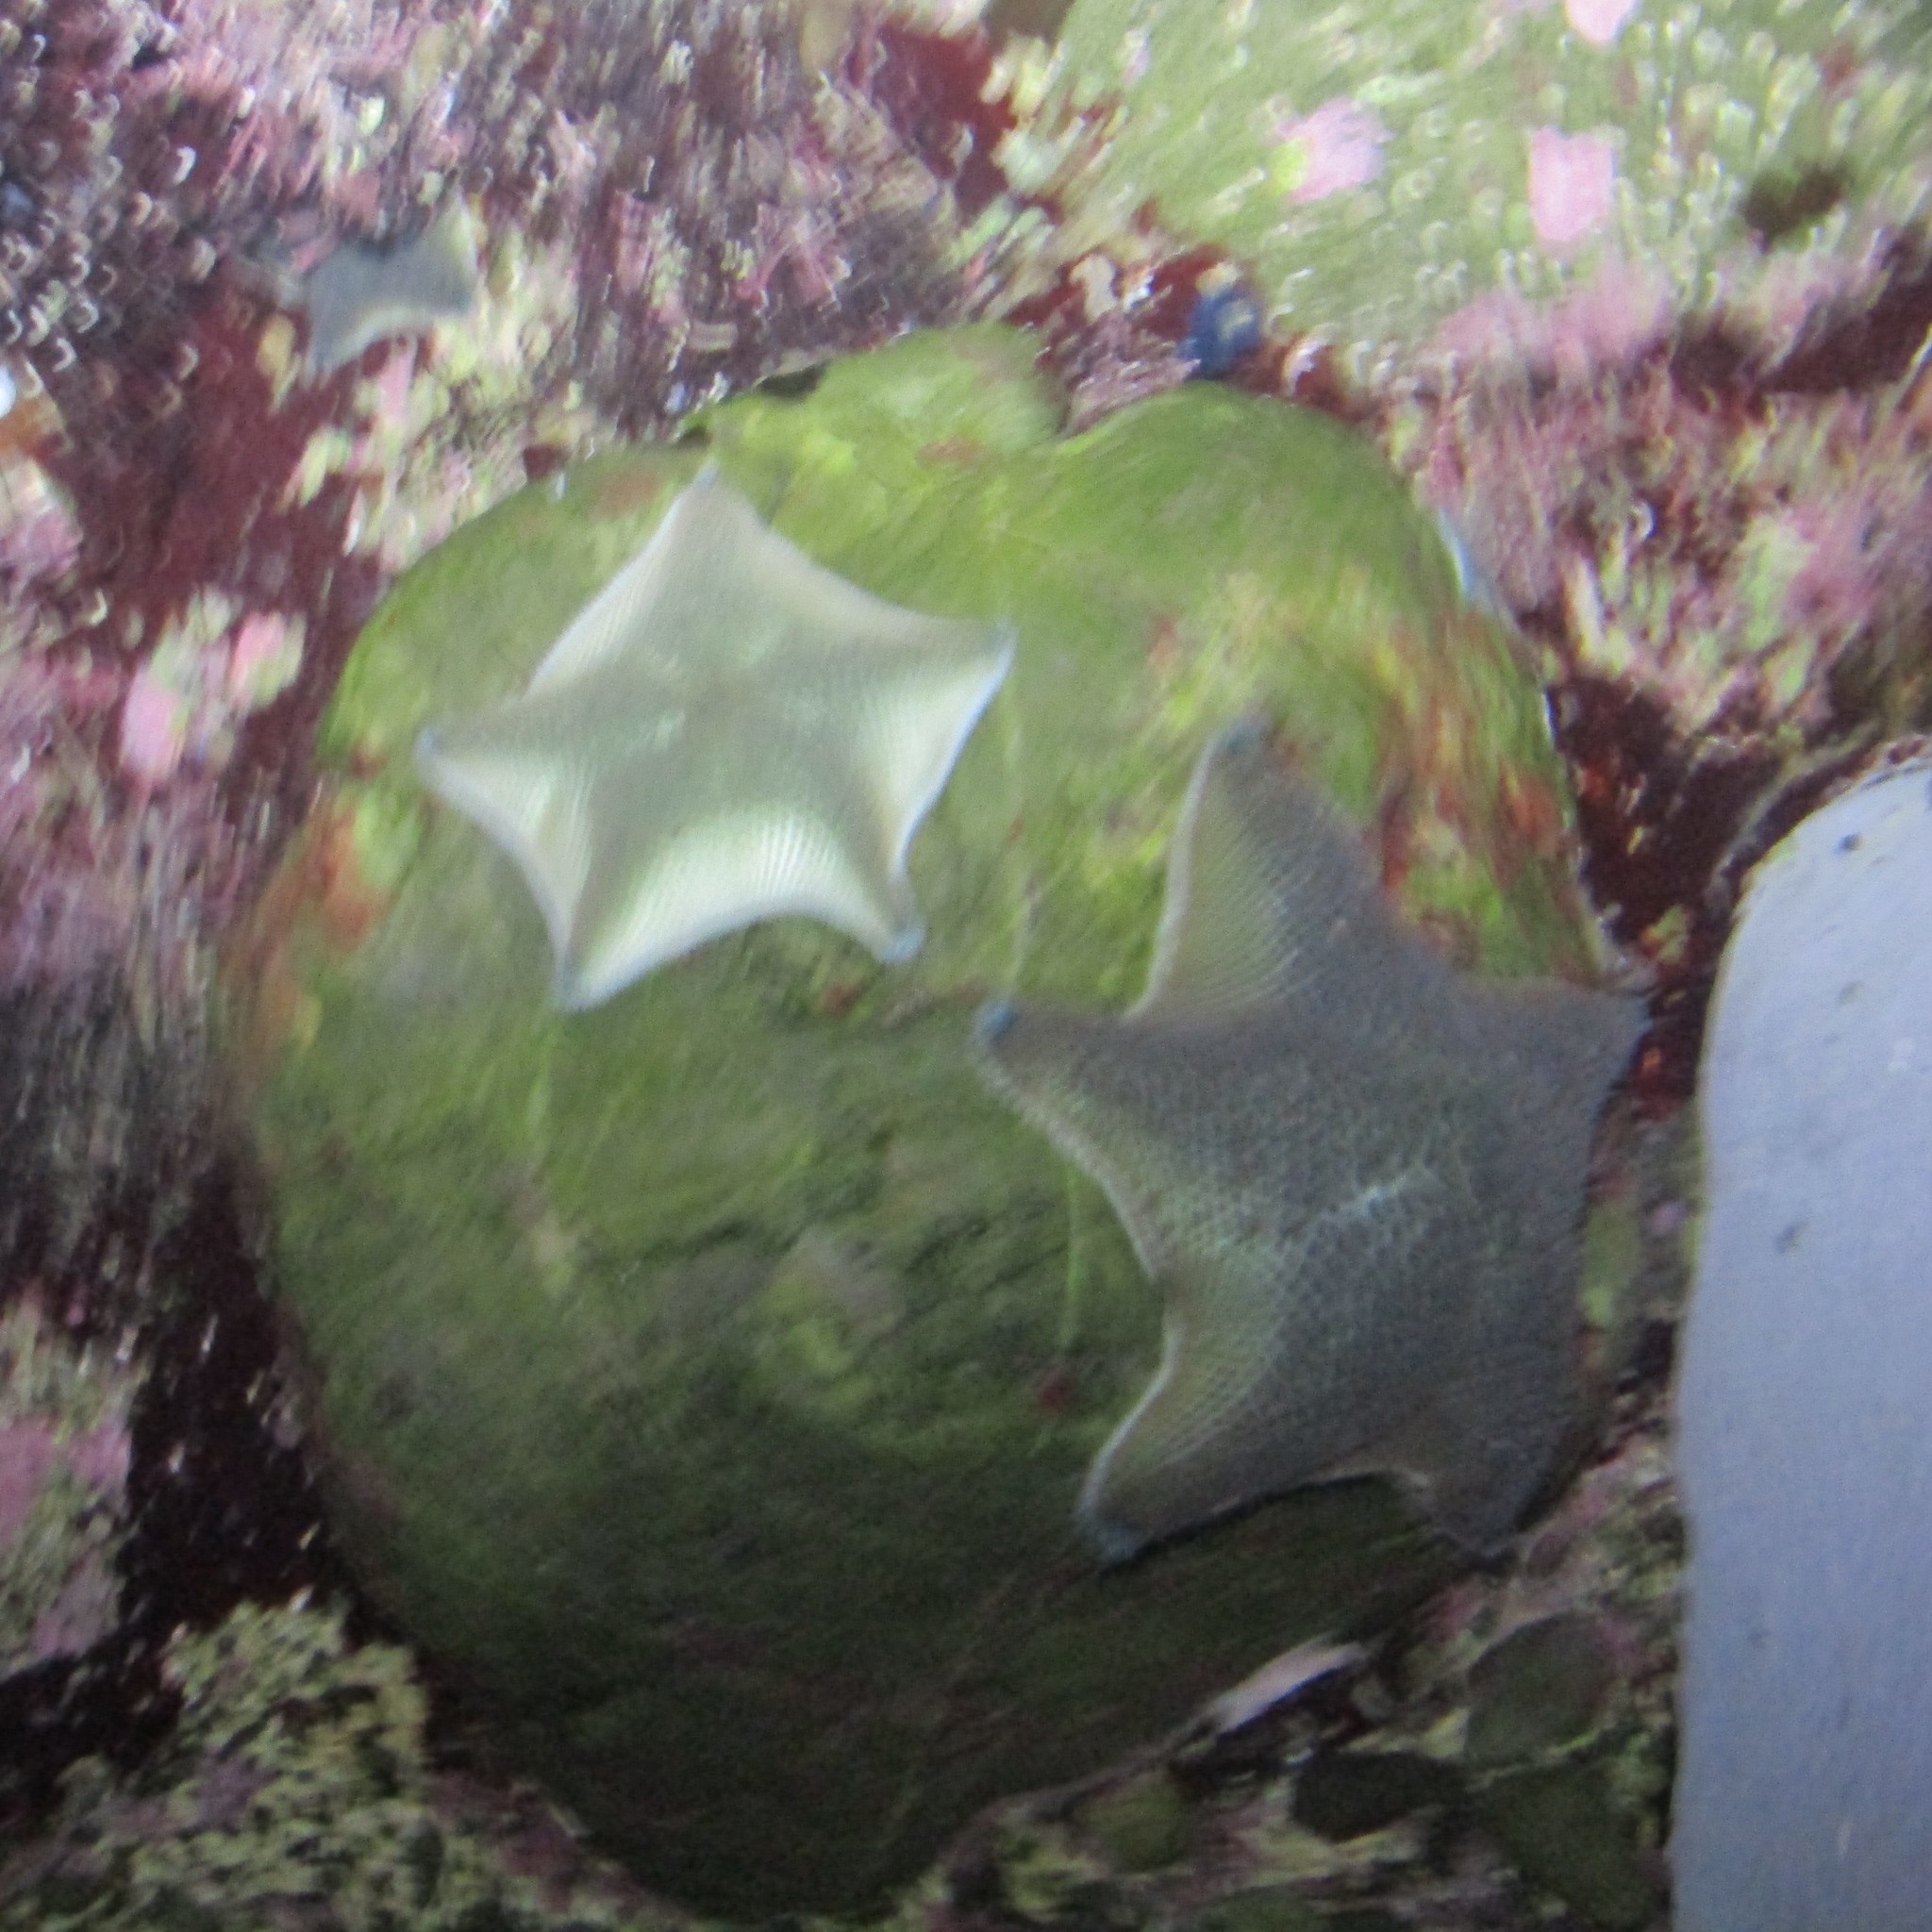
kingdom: Animalia
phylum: Echinodermata
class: Asteroidea
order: Valvatida
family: Asterinidae
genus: Patiriella
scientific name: Patiriella regularis
